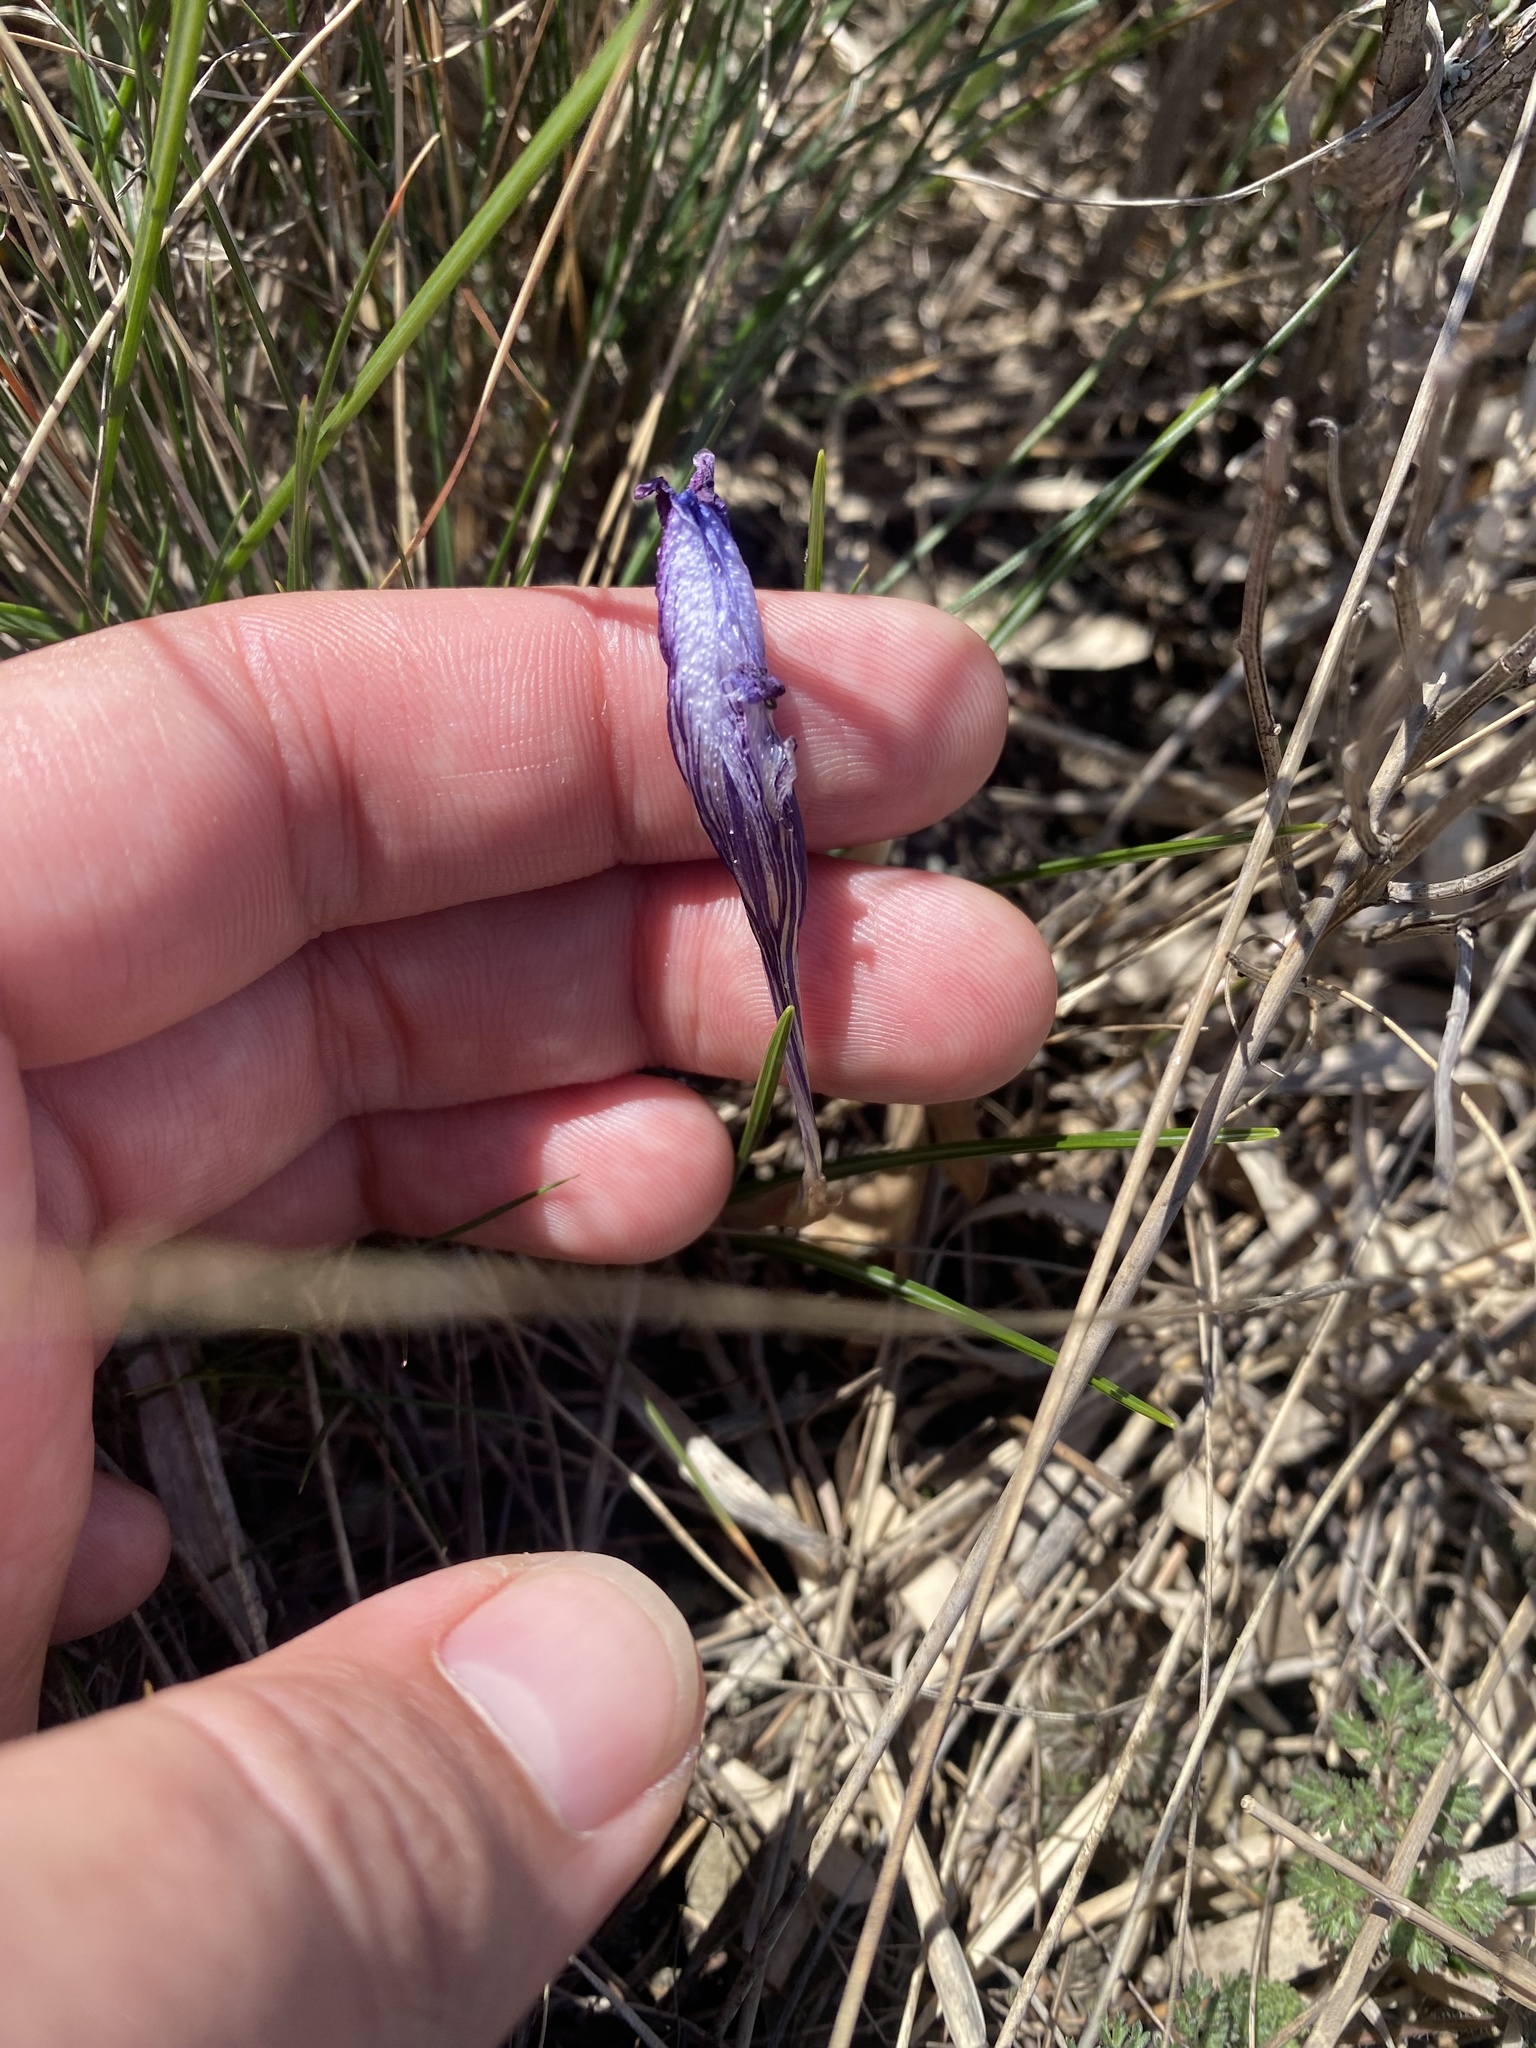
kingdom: Plantae
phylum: Tracheophyta
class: Liliopsida
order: Asparagales
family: Iridaceae
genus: Crocus
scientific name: Crocus reticulatus
